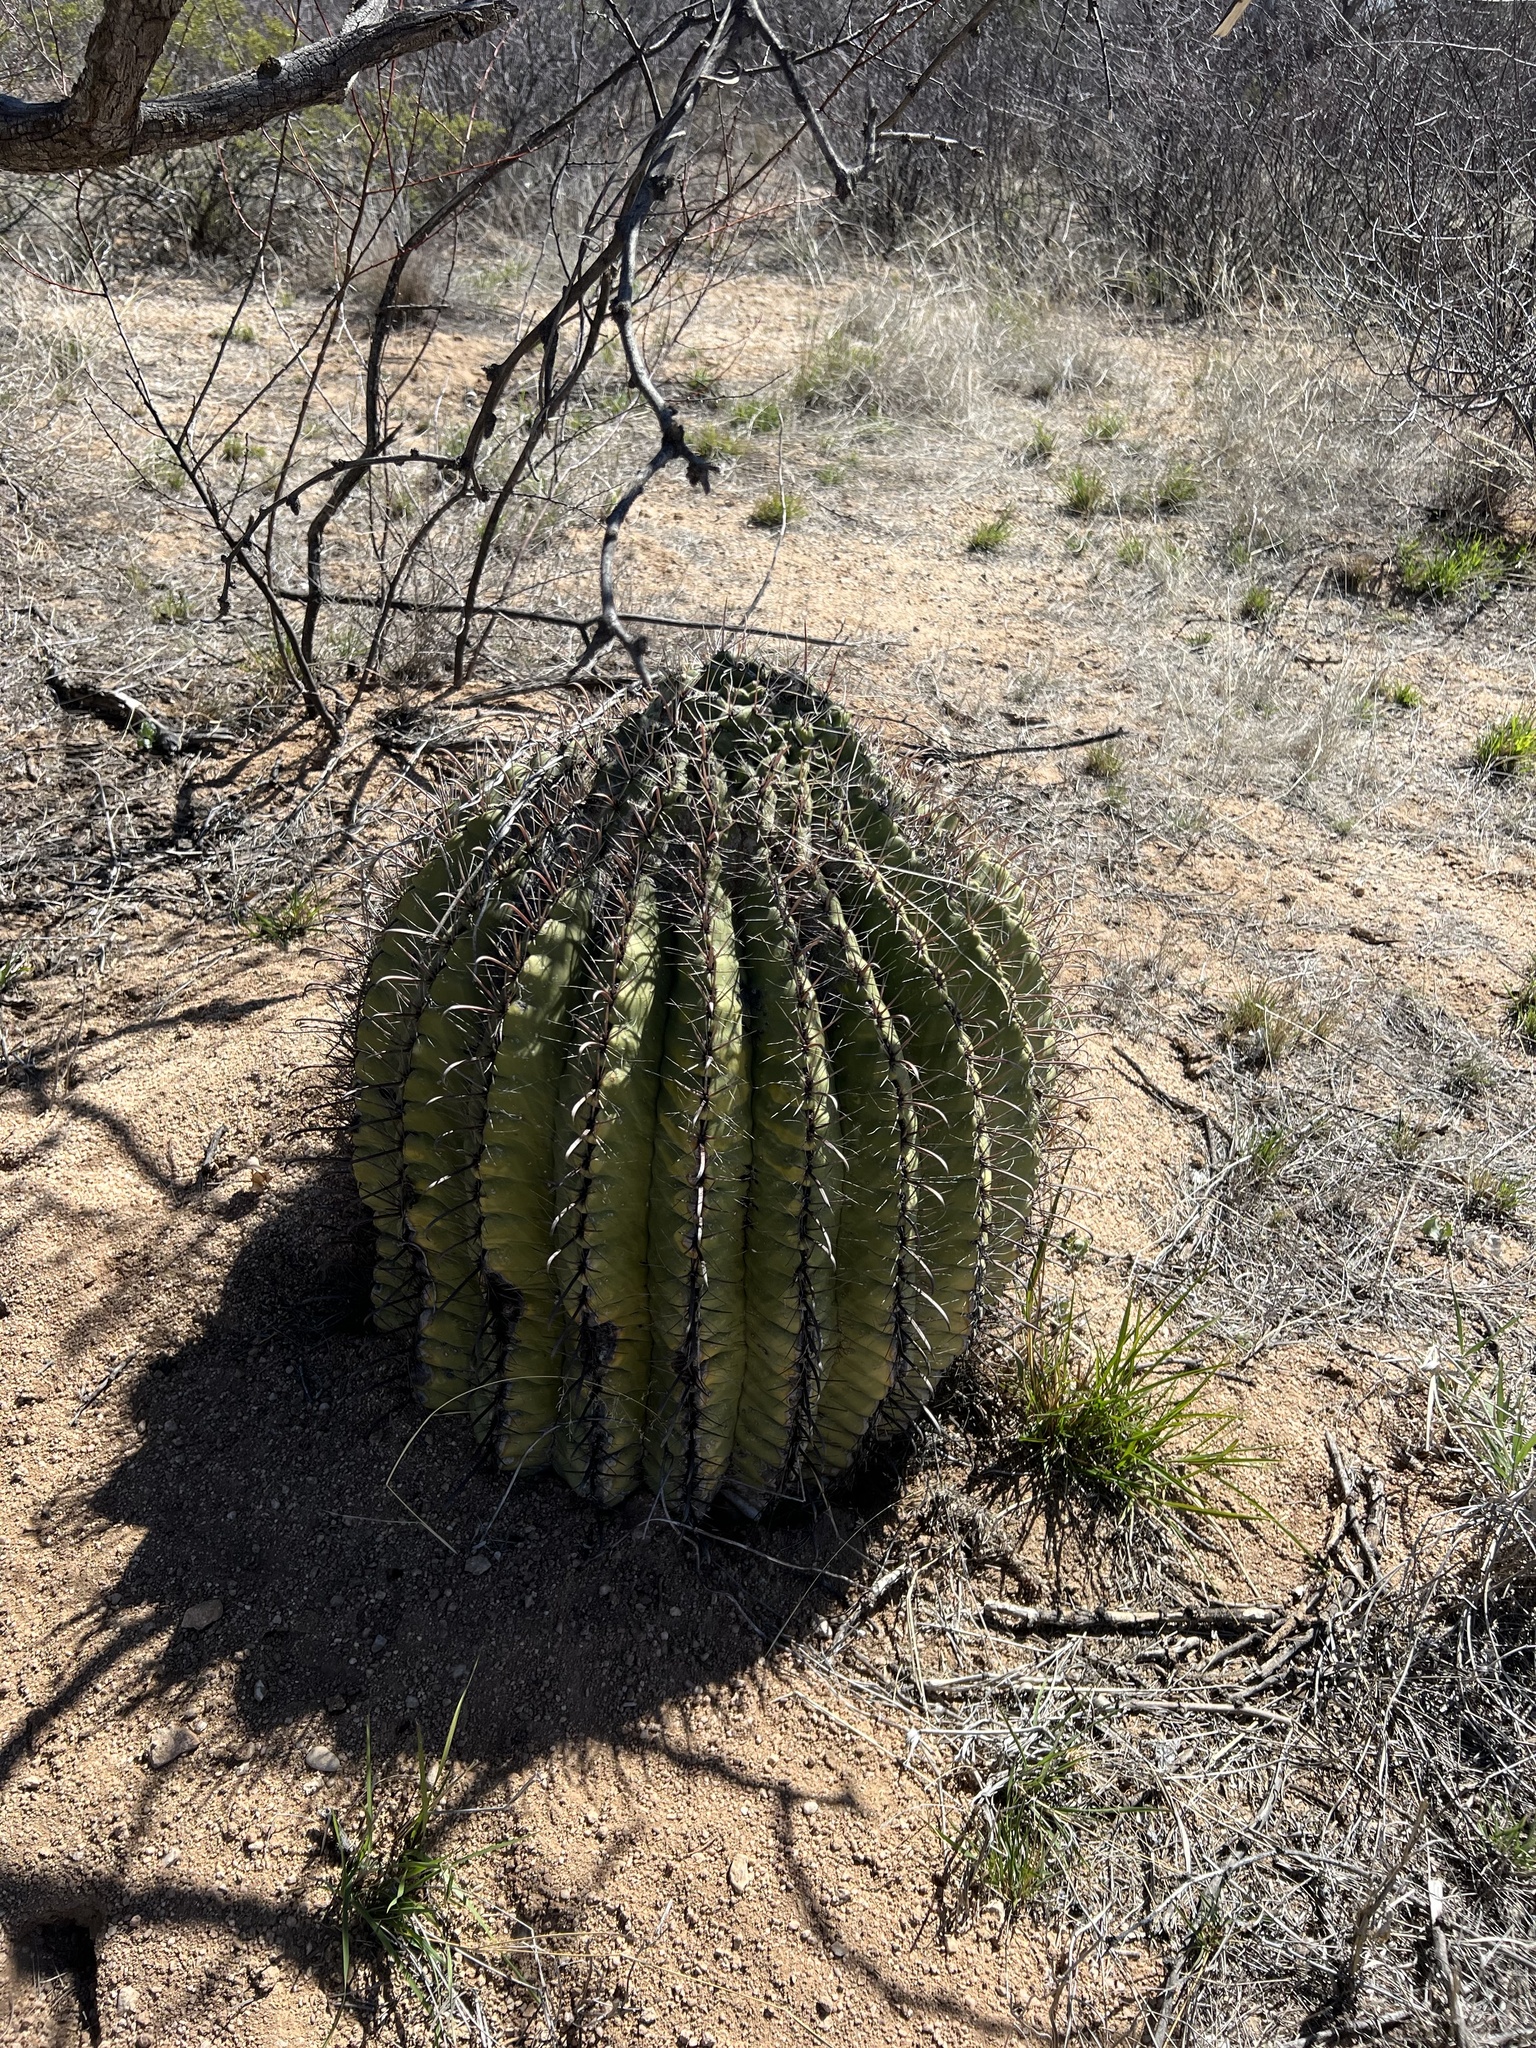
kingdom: Plantae
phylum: Tracheophyta
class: Magnoliopsida
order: Caryophyllales
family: Cactaceae
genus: Ferocactus
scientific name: Ferocactus wislizeni
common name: Candy barrel cactus
